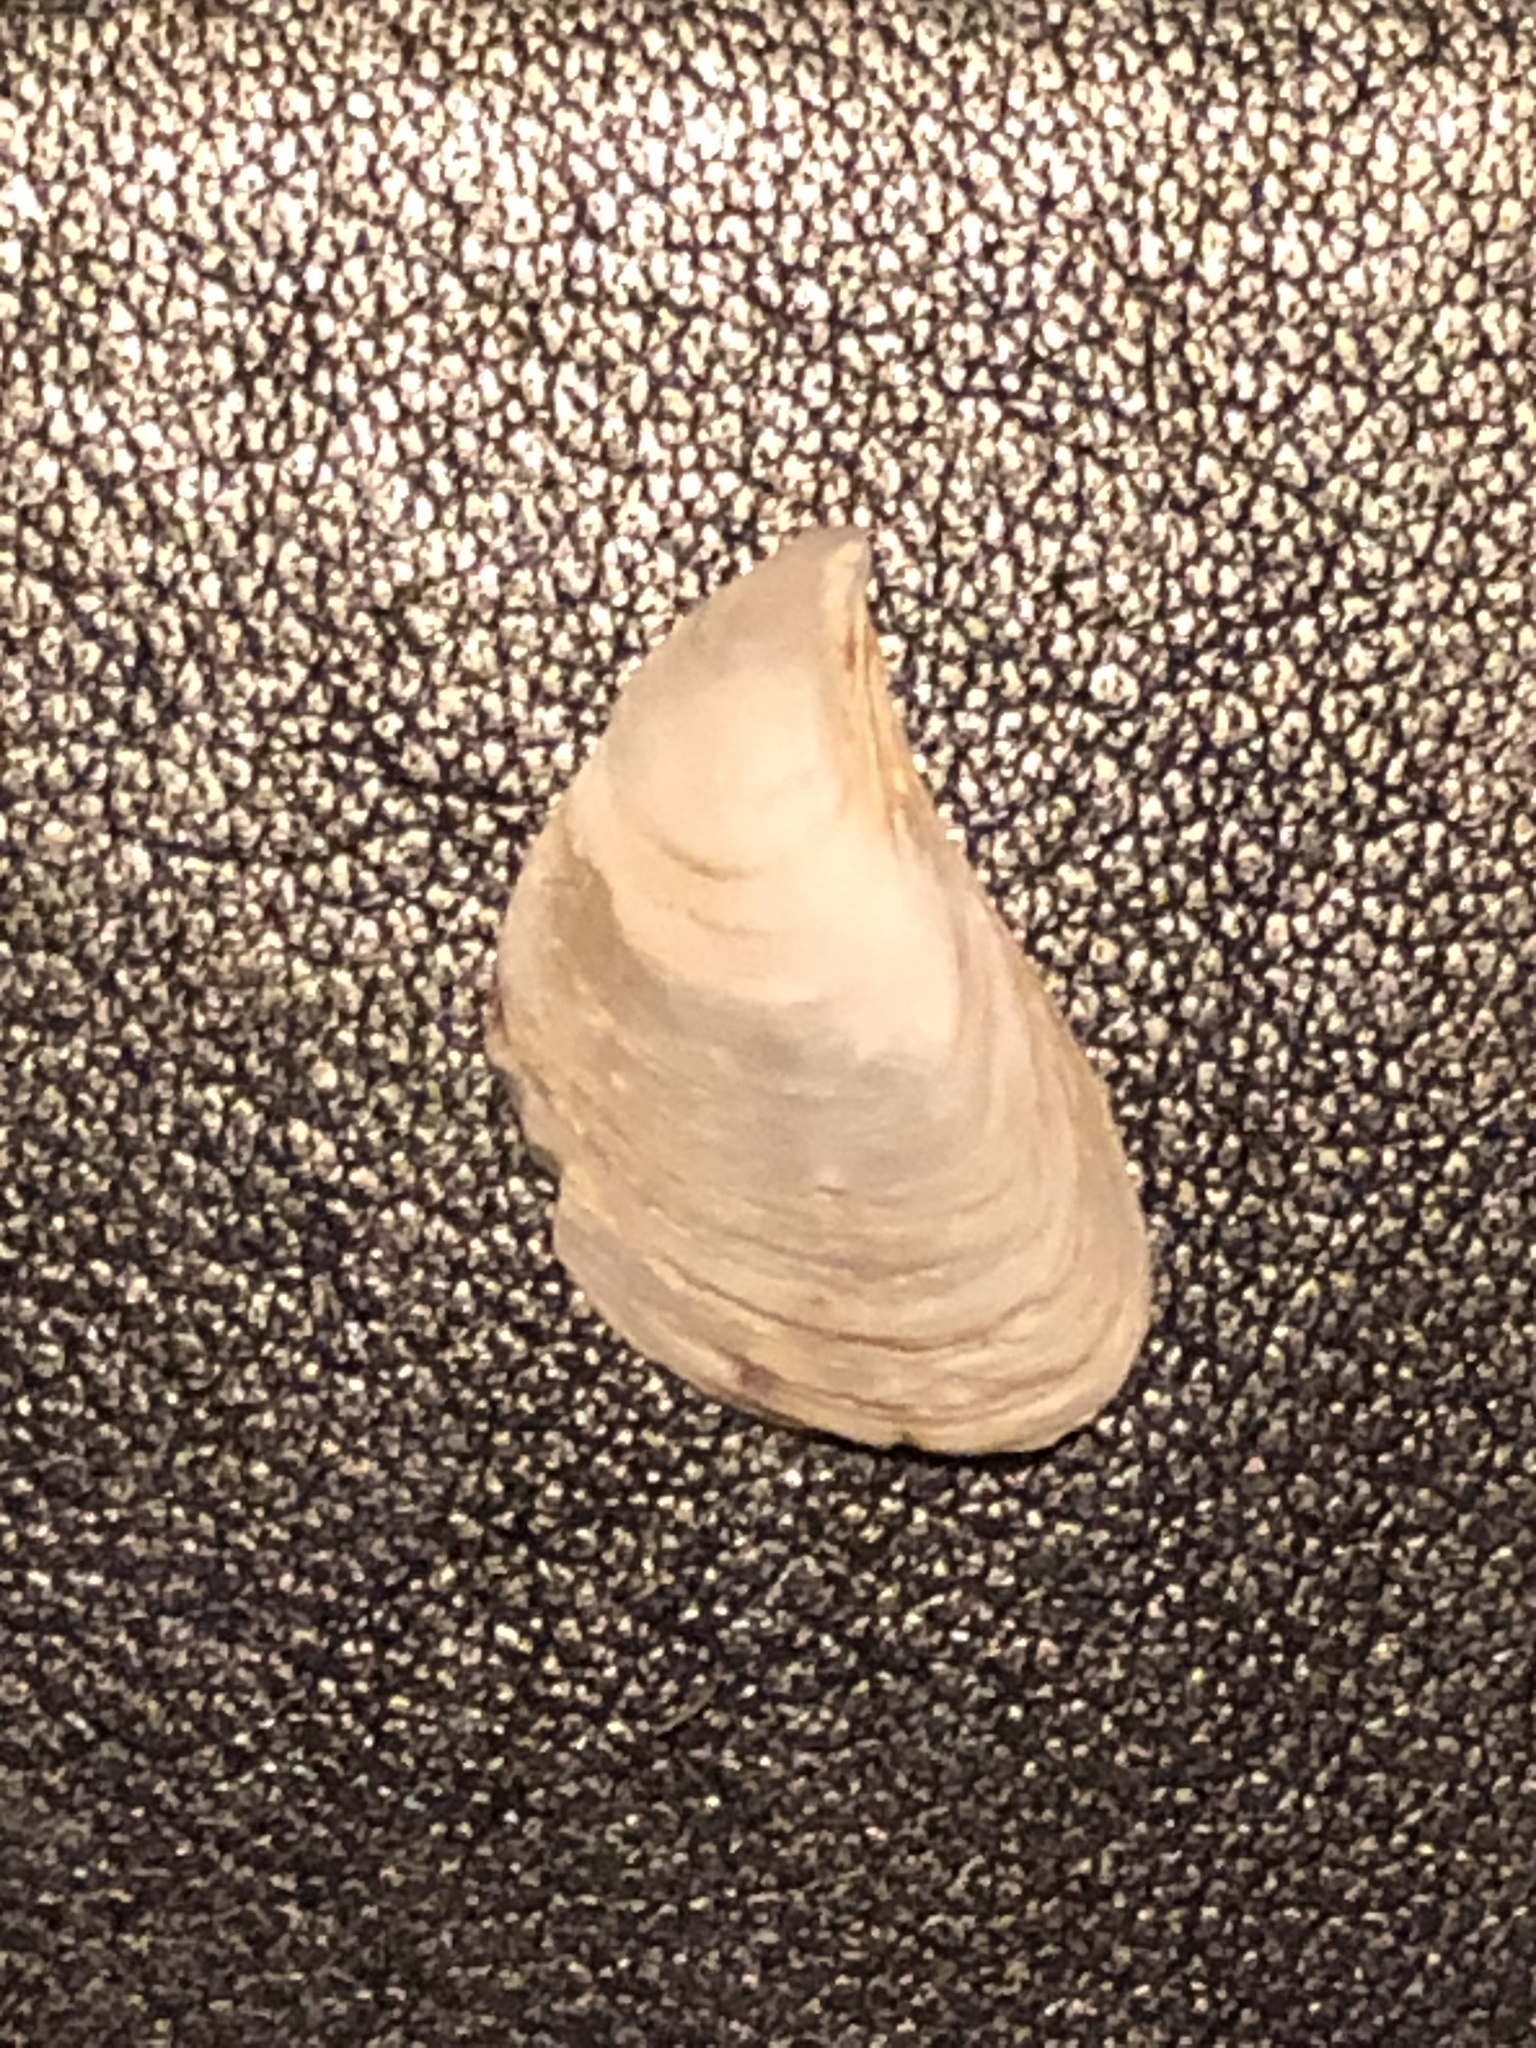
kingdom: Animalia
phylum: Mollusca
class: Bivalvia
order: Myida
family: Dreissenidae
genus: Dreissena
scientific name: Dreissena bugensis
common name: Quagga mussel
